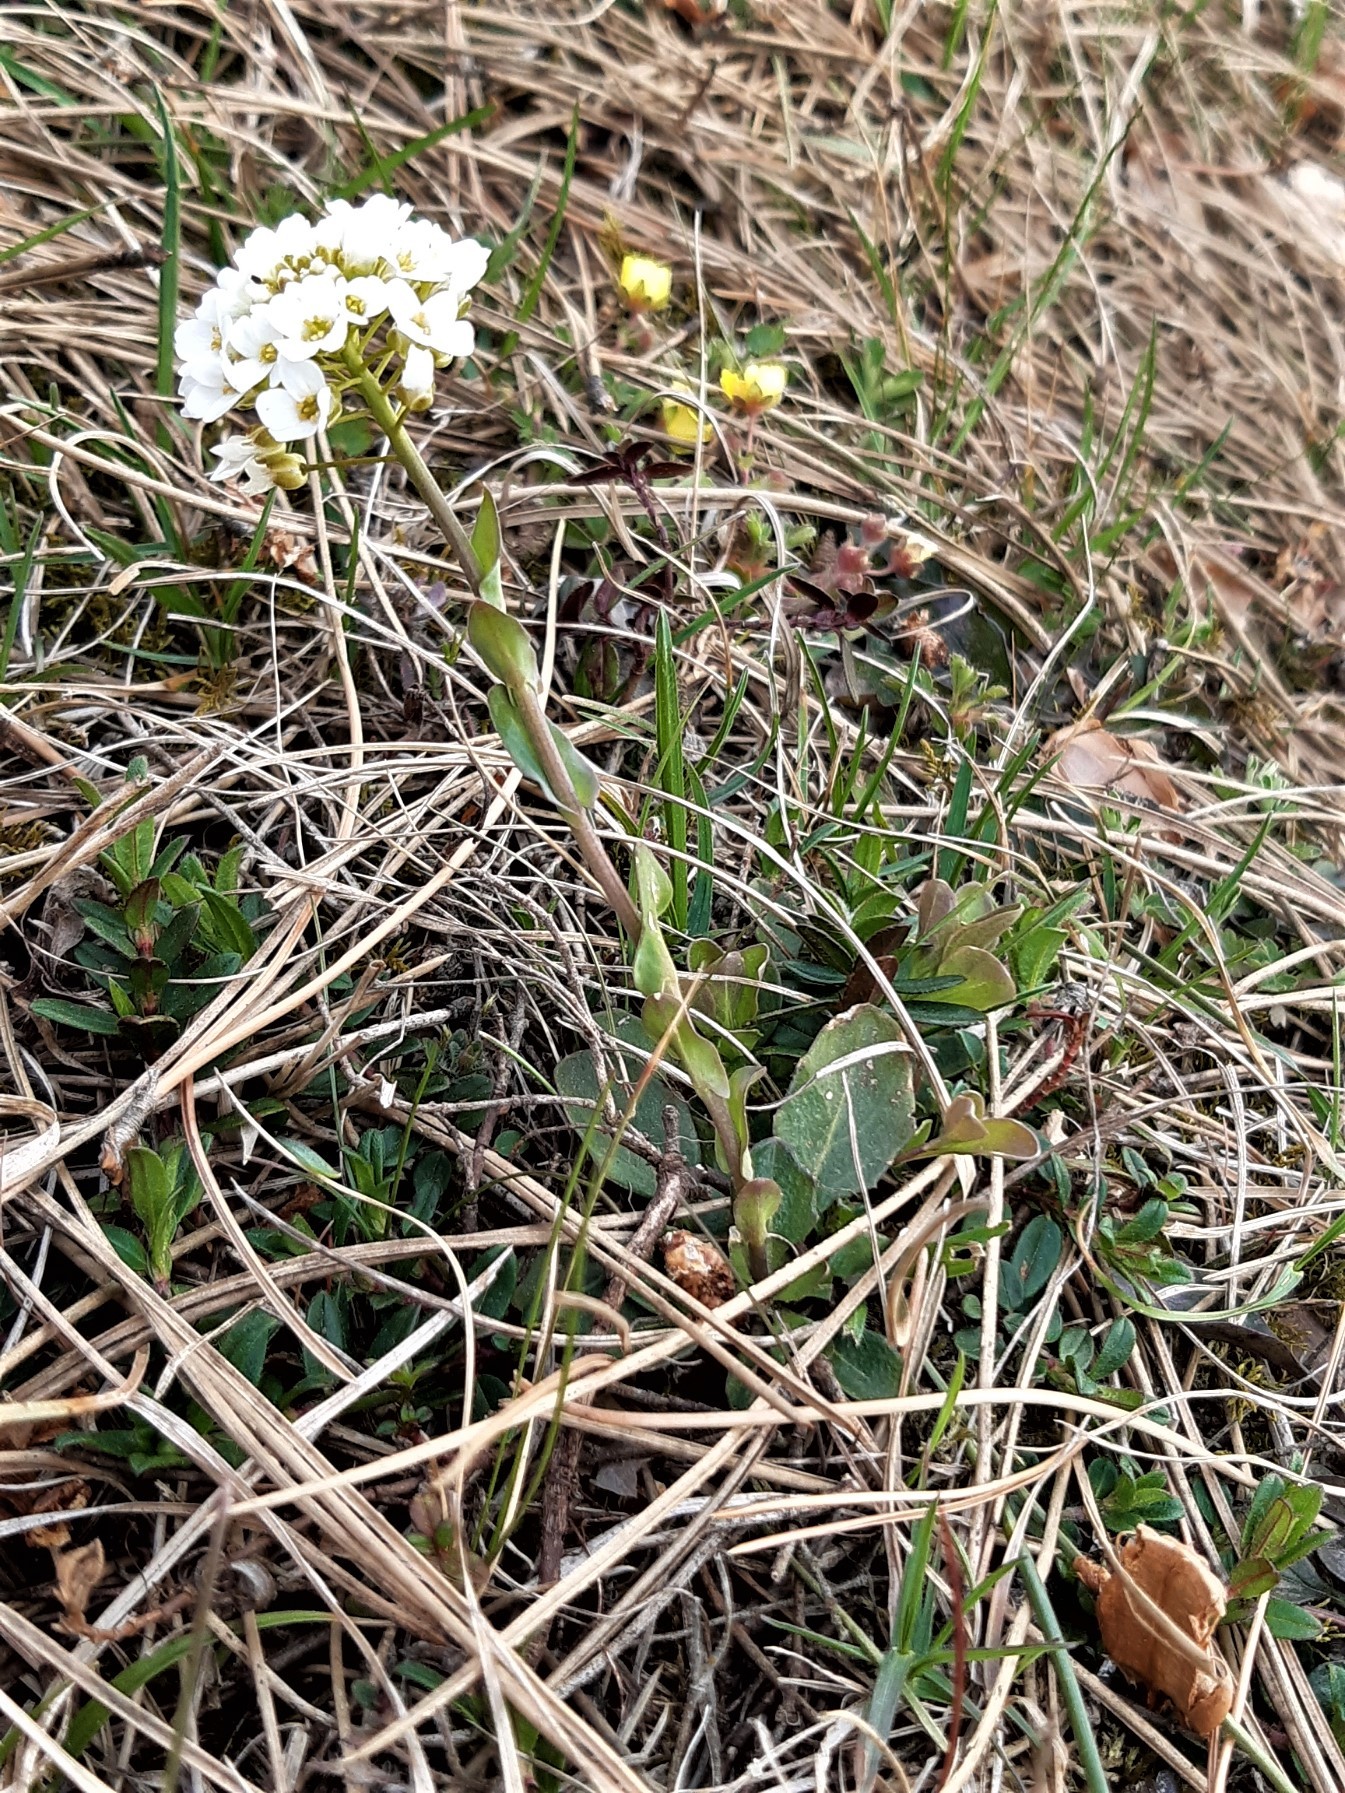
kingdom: Plantae
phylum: Tracheophyta
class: Magnoliopsida
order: Brassicales
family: Brassicaceae
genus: Noccaea
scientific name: Noccaea montana
